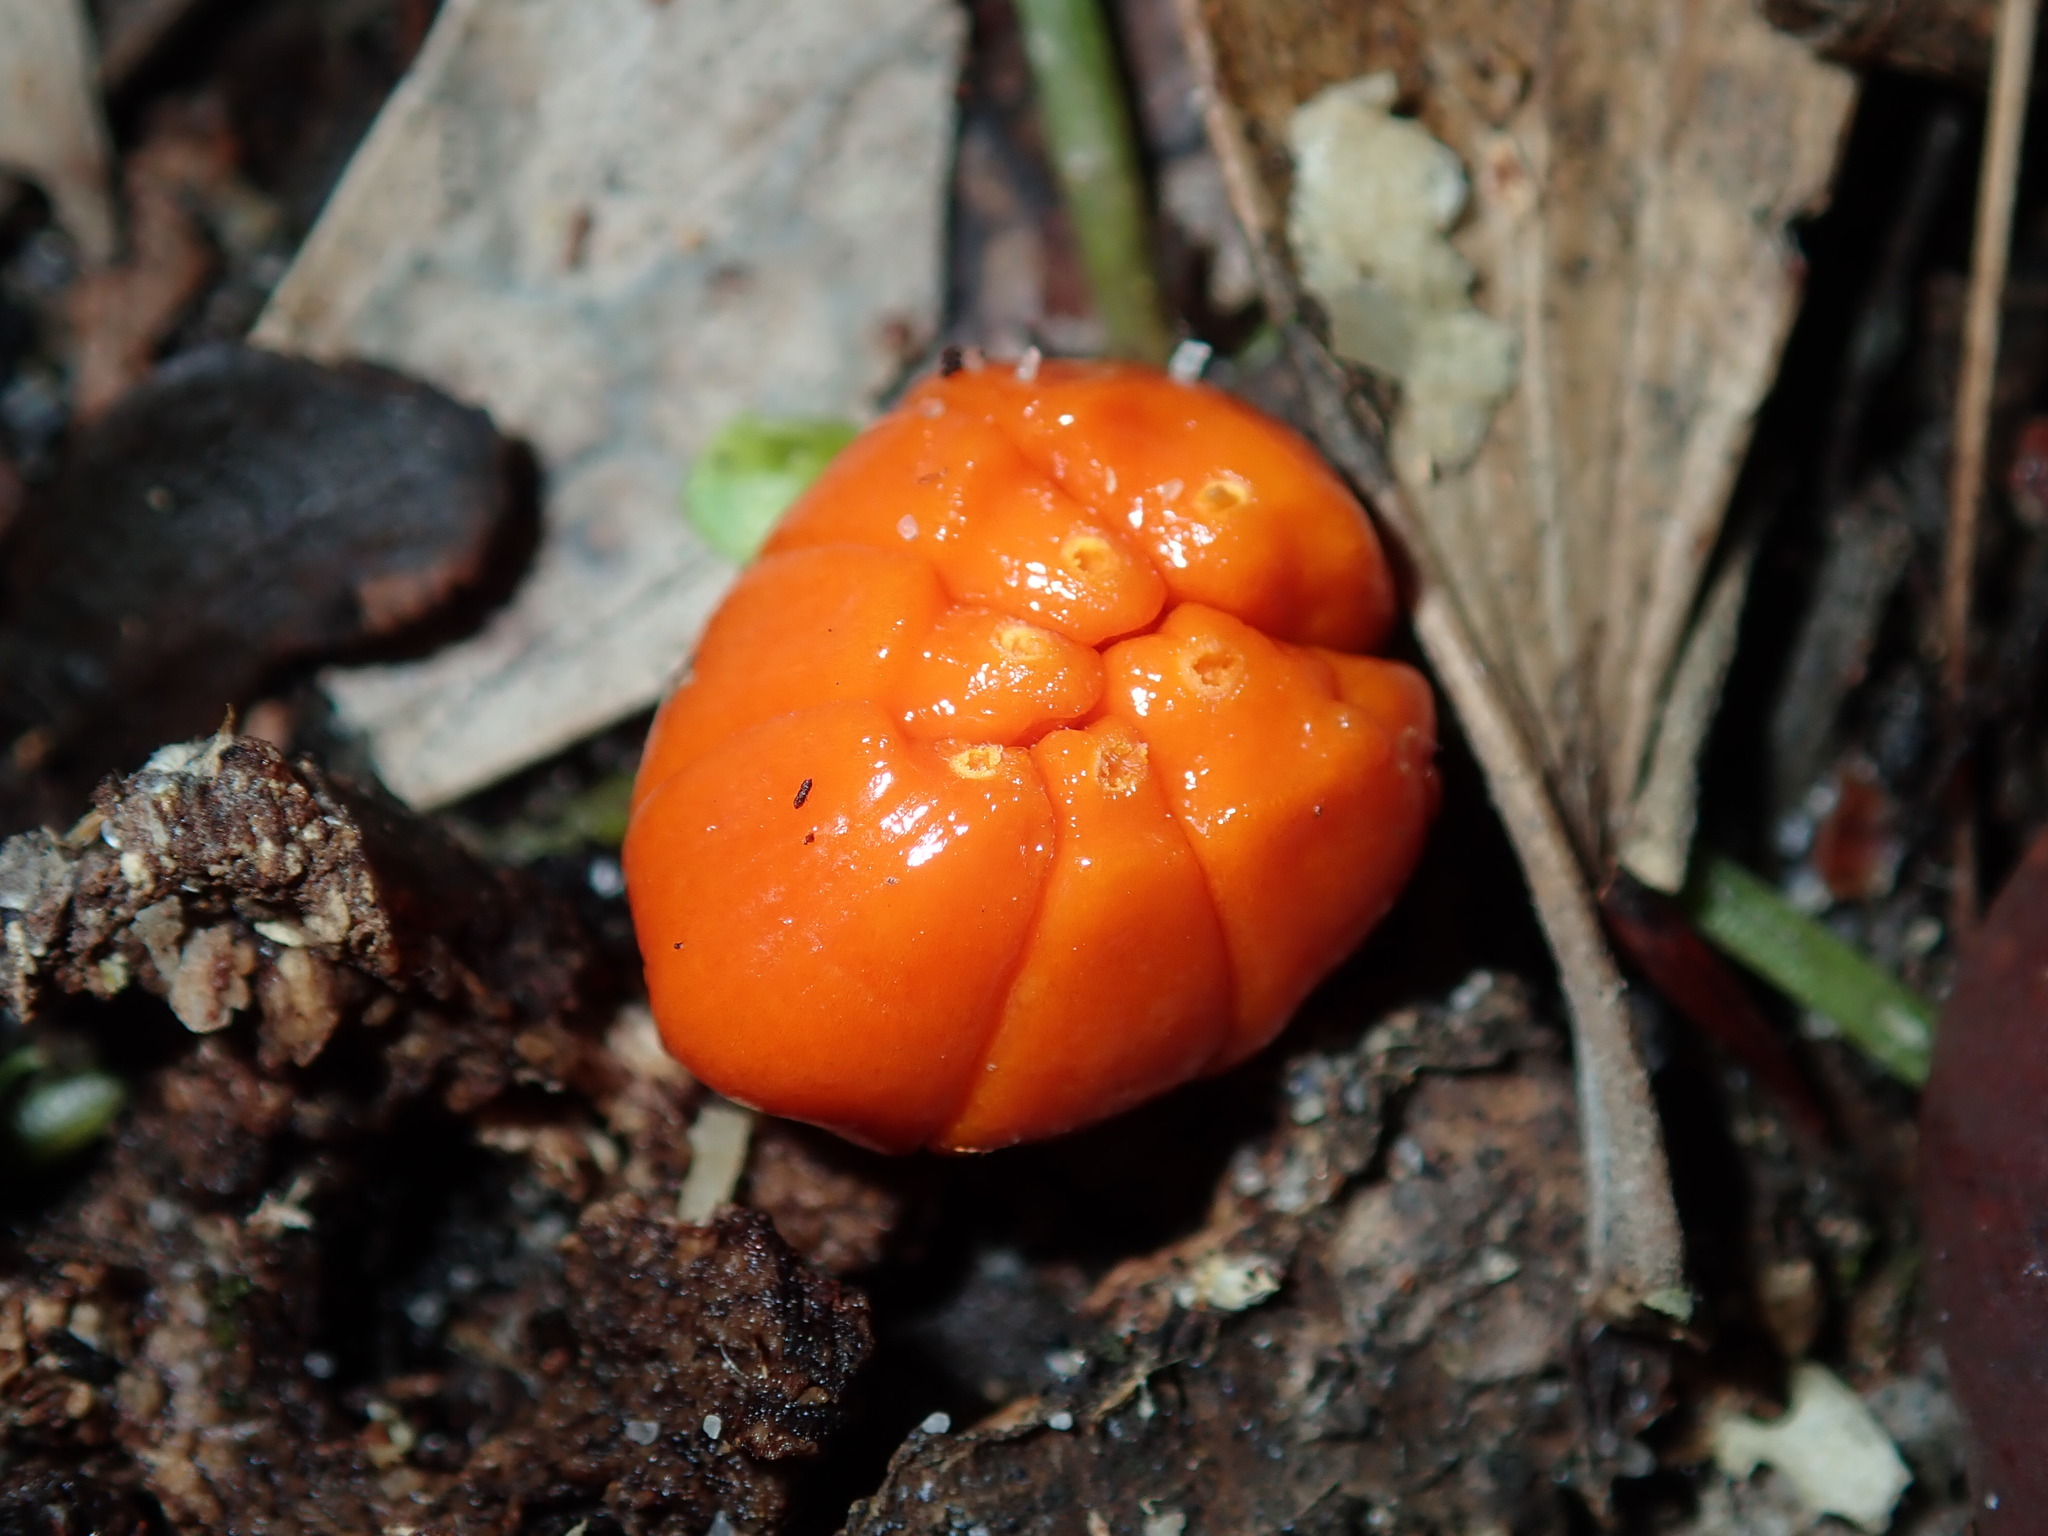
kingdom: Plantae
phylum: Tracheophyta
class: Magnoliopsida
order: Dilleniales
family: Dilleniaceae
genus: Hibbertia
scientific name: Hibbertia scandens
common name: Climbing guinea-flower
